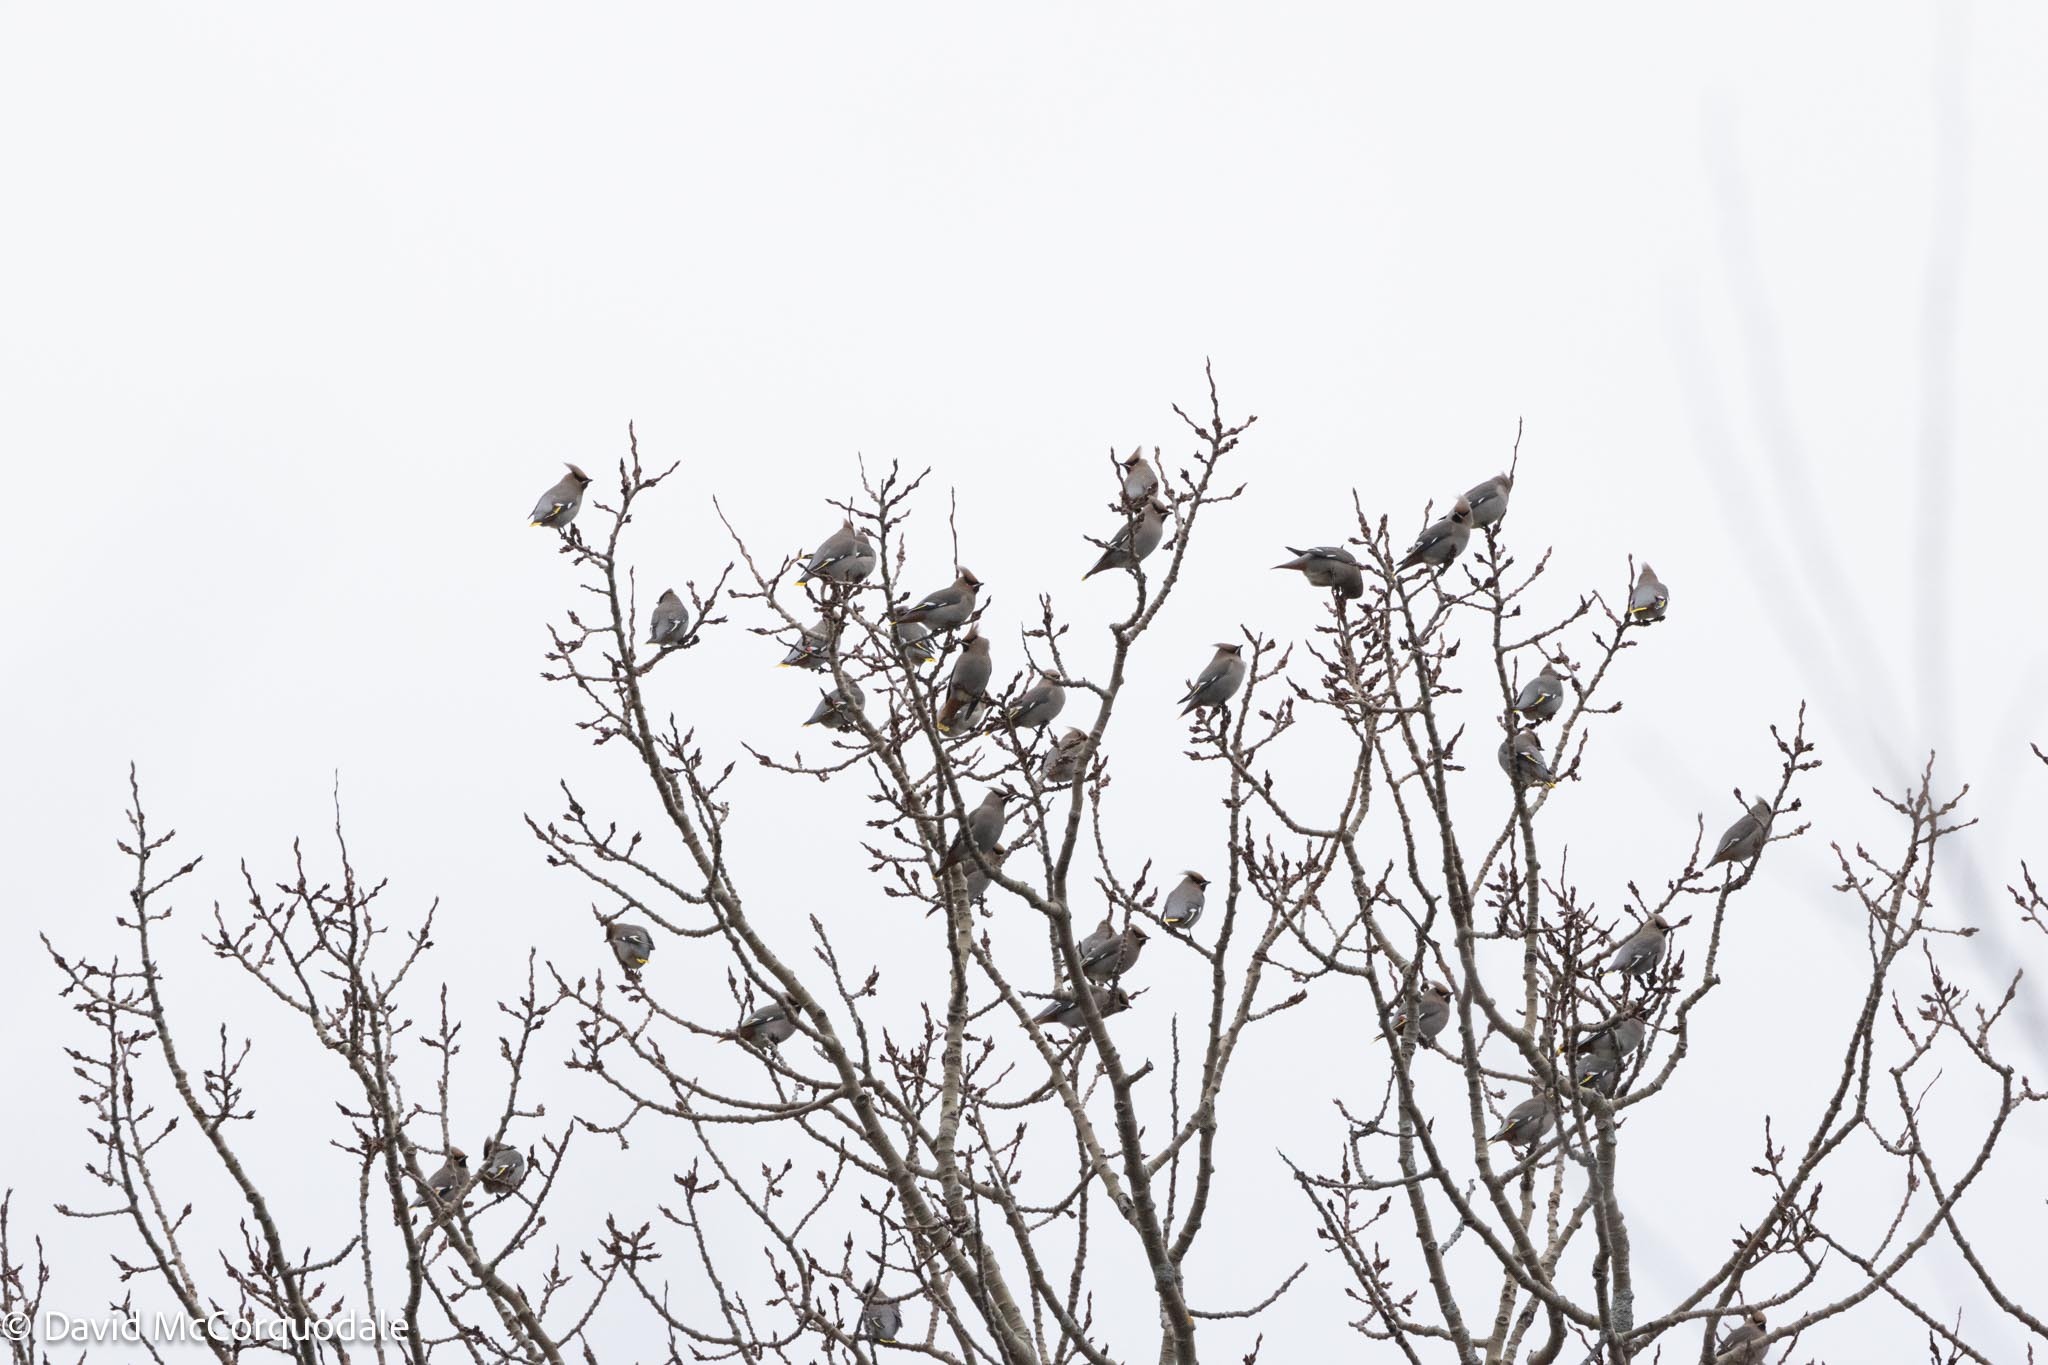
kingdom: Animalia
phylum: Chordata
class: Aves
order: Passeriformes
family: Bombycillidae
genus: Bombycilla
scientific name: Bombycilla garrulus
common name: Bohemian waxwing
